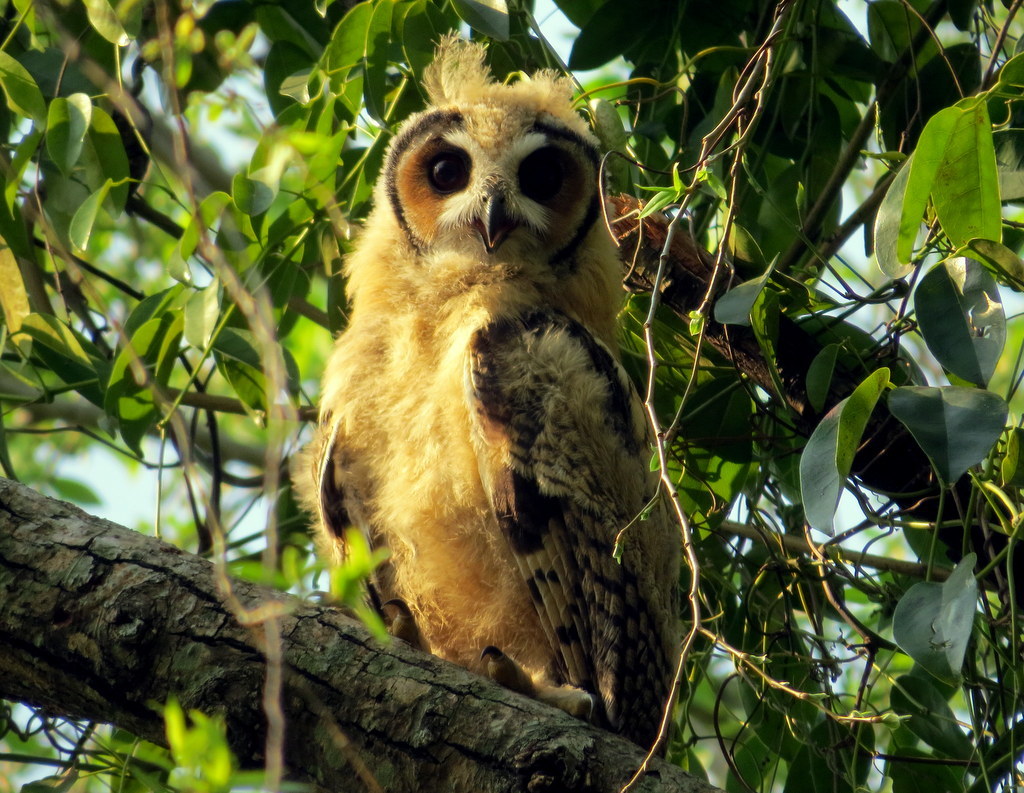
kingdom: Animalia
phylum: Chordata
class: Aves
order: Strigiformes
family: Strigidae
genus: Pseudoscops
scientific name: Pseudoscops clamator
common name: Striped owl
